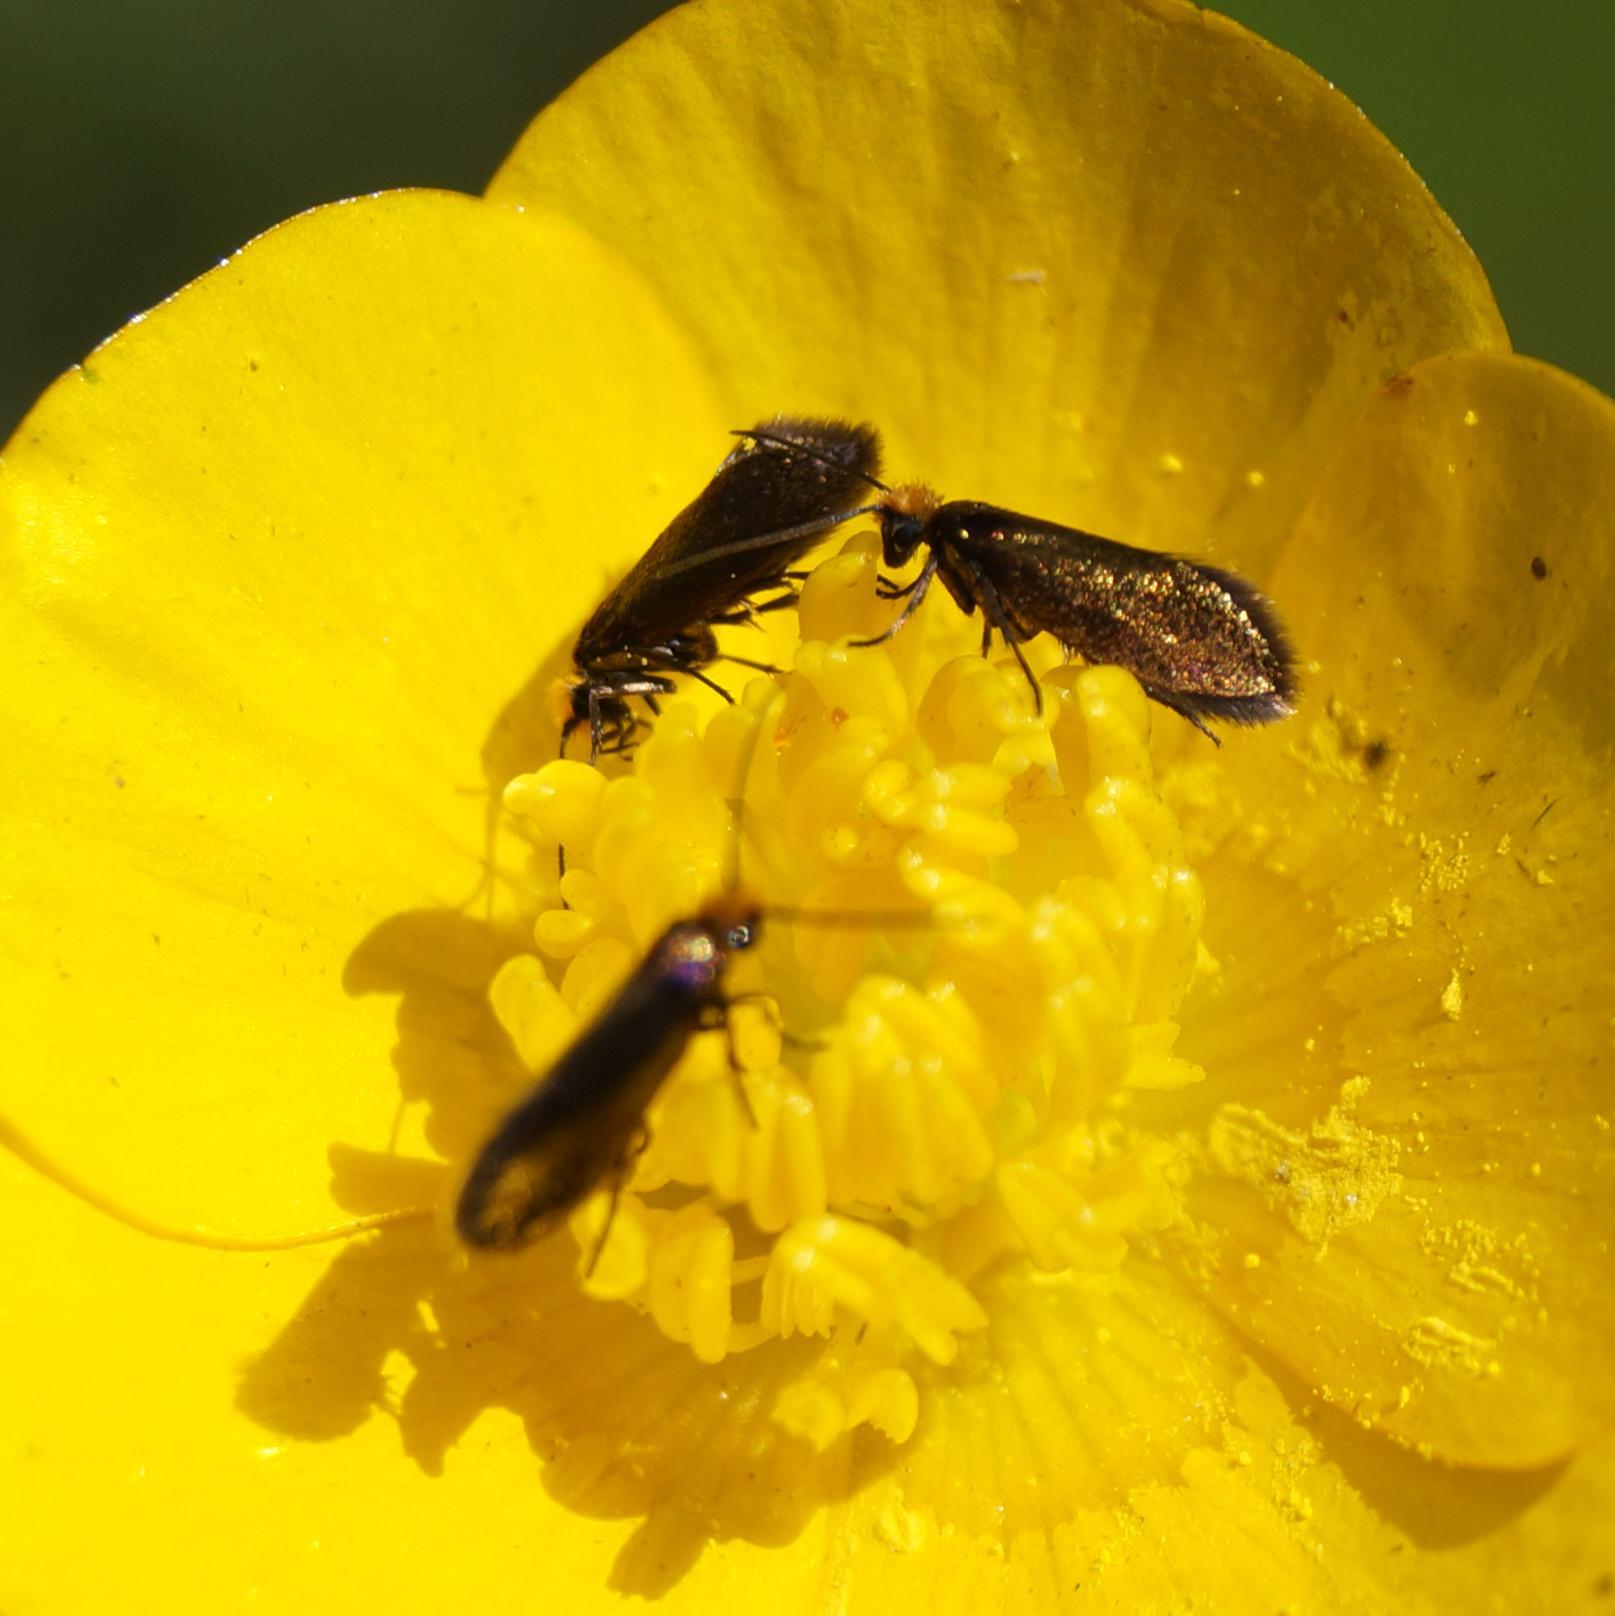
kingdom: Animalia
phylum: Arthropoda
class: Insecta
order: Lepidoptera
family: Micropterigidae
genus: Micropterix
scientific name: Micropterix calthella
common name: Plain gold
